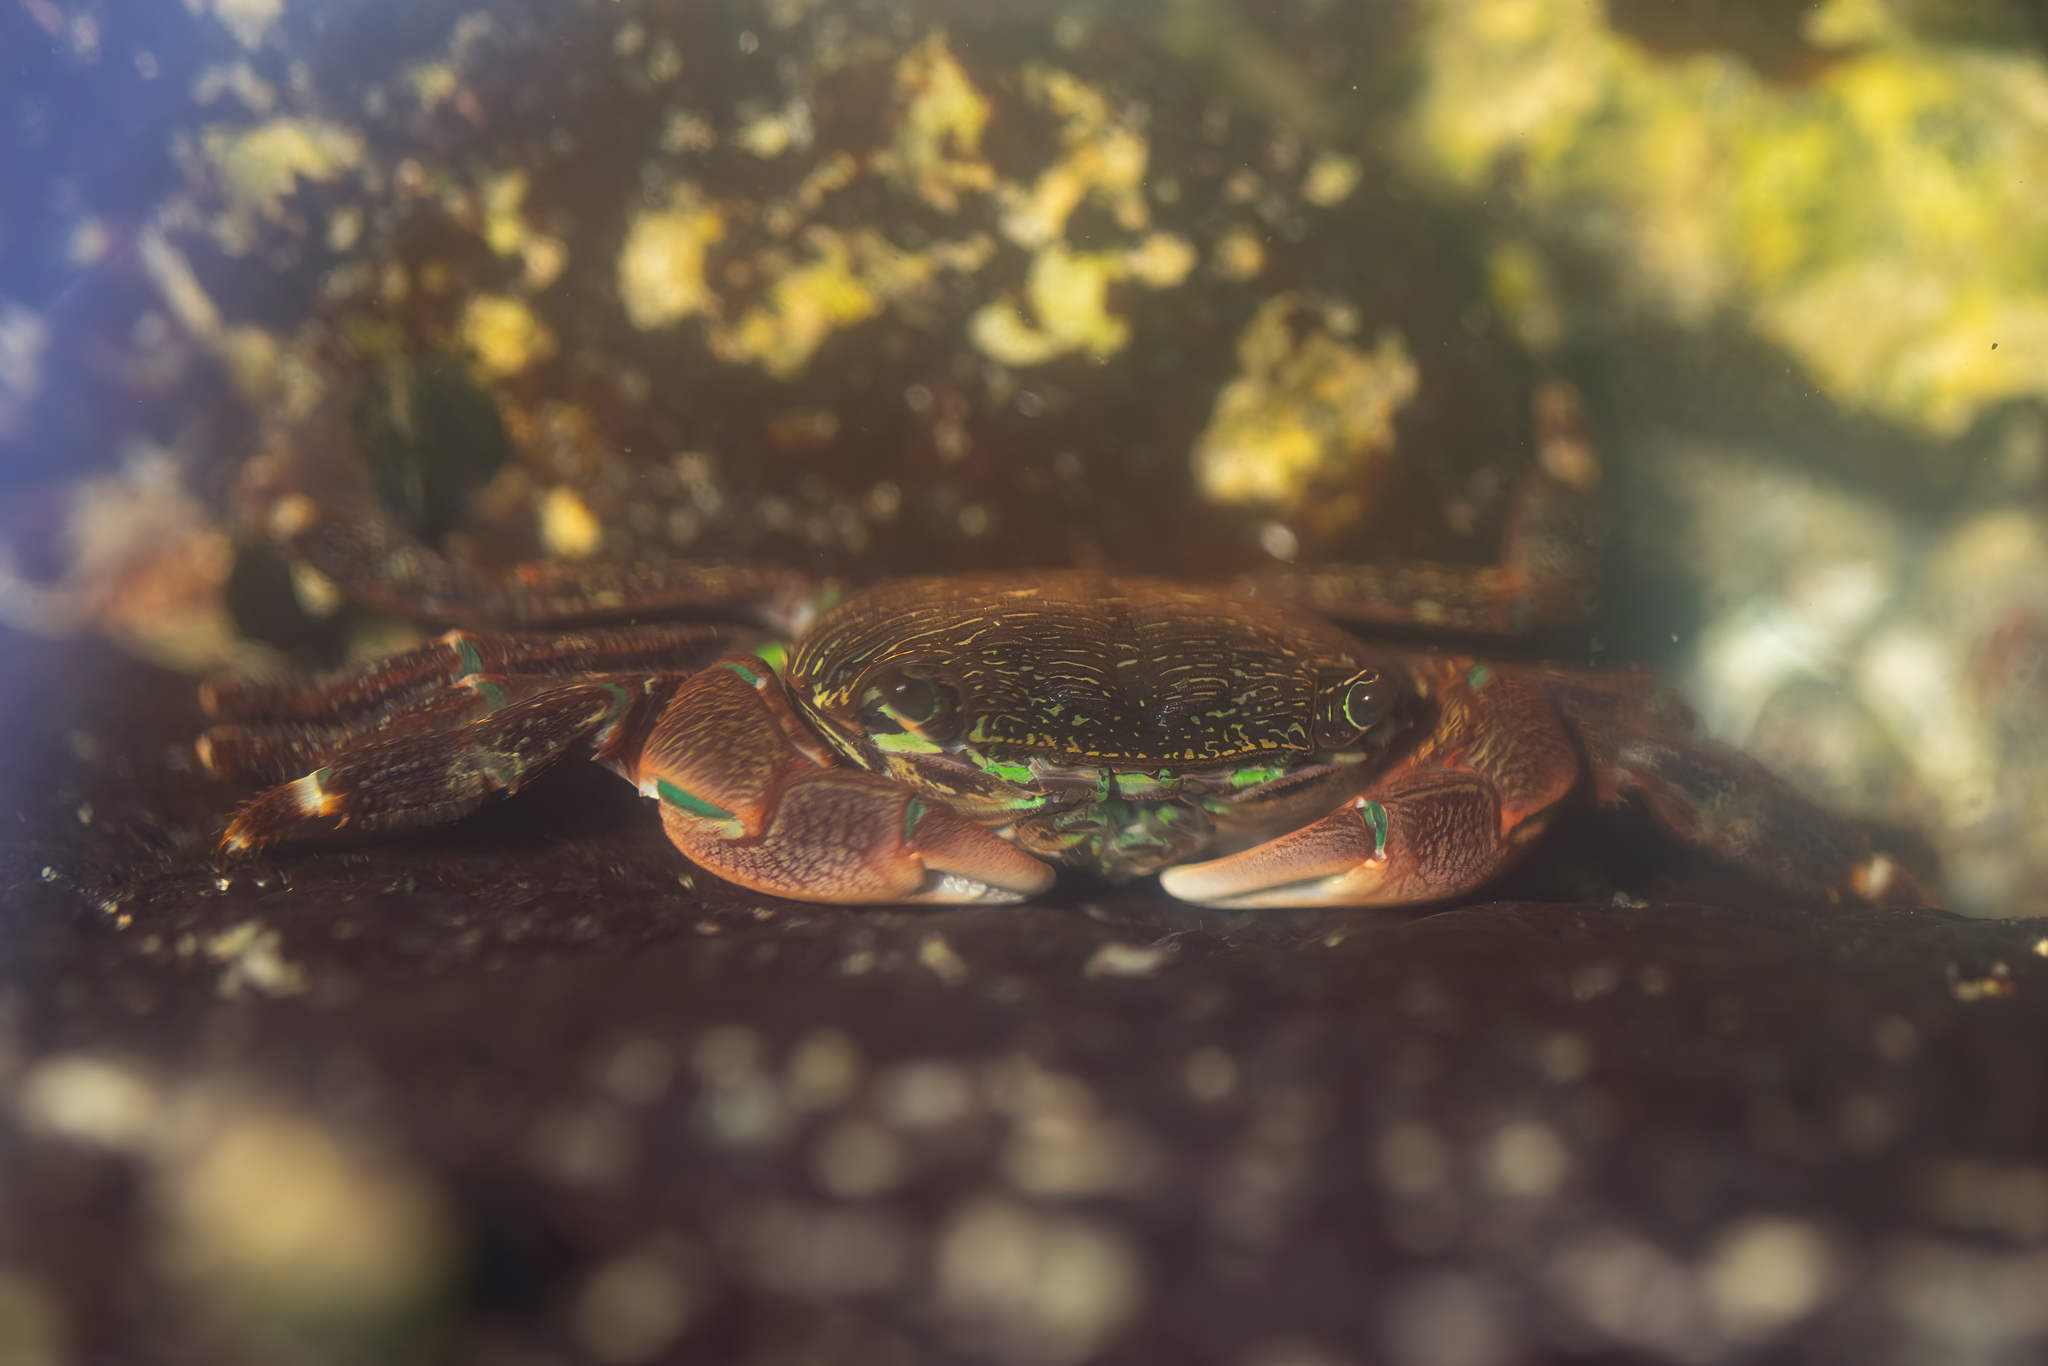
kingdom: Animalia
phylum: Arthropoda
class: Malacostraca
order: Decapoda
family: Grapsidae
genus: Pachygrapsus
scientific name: Pachygrapsus crassipes
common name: Striped shore crab
